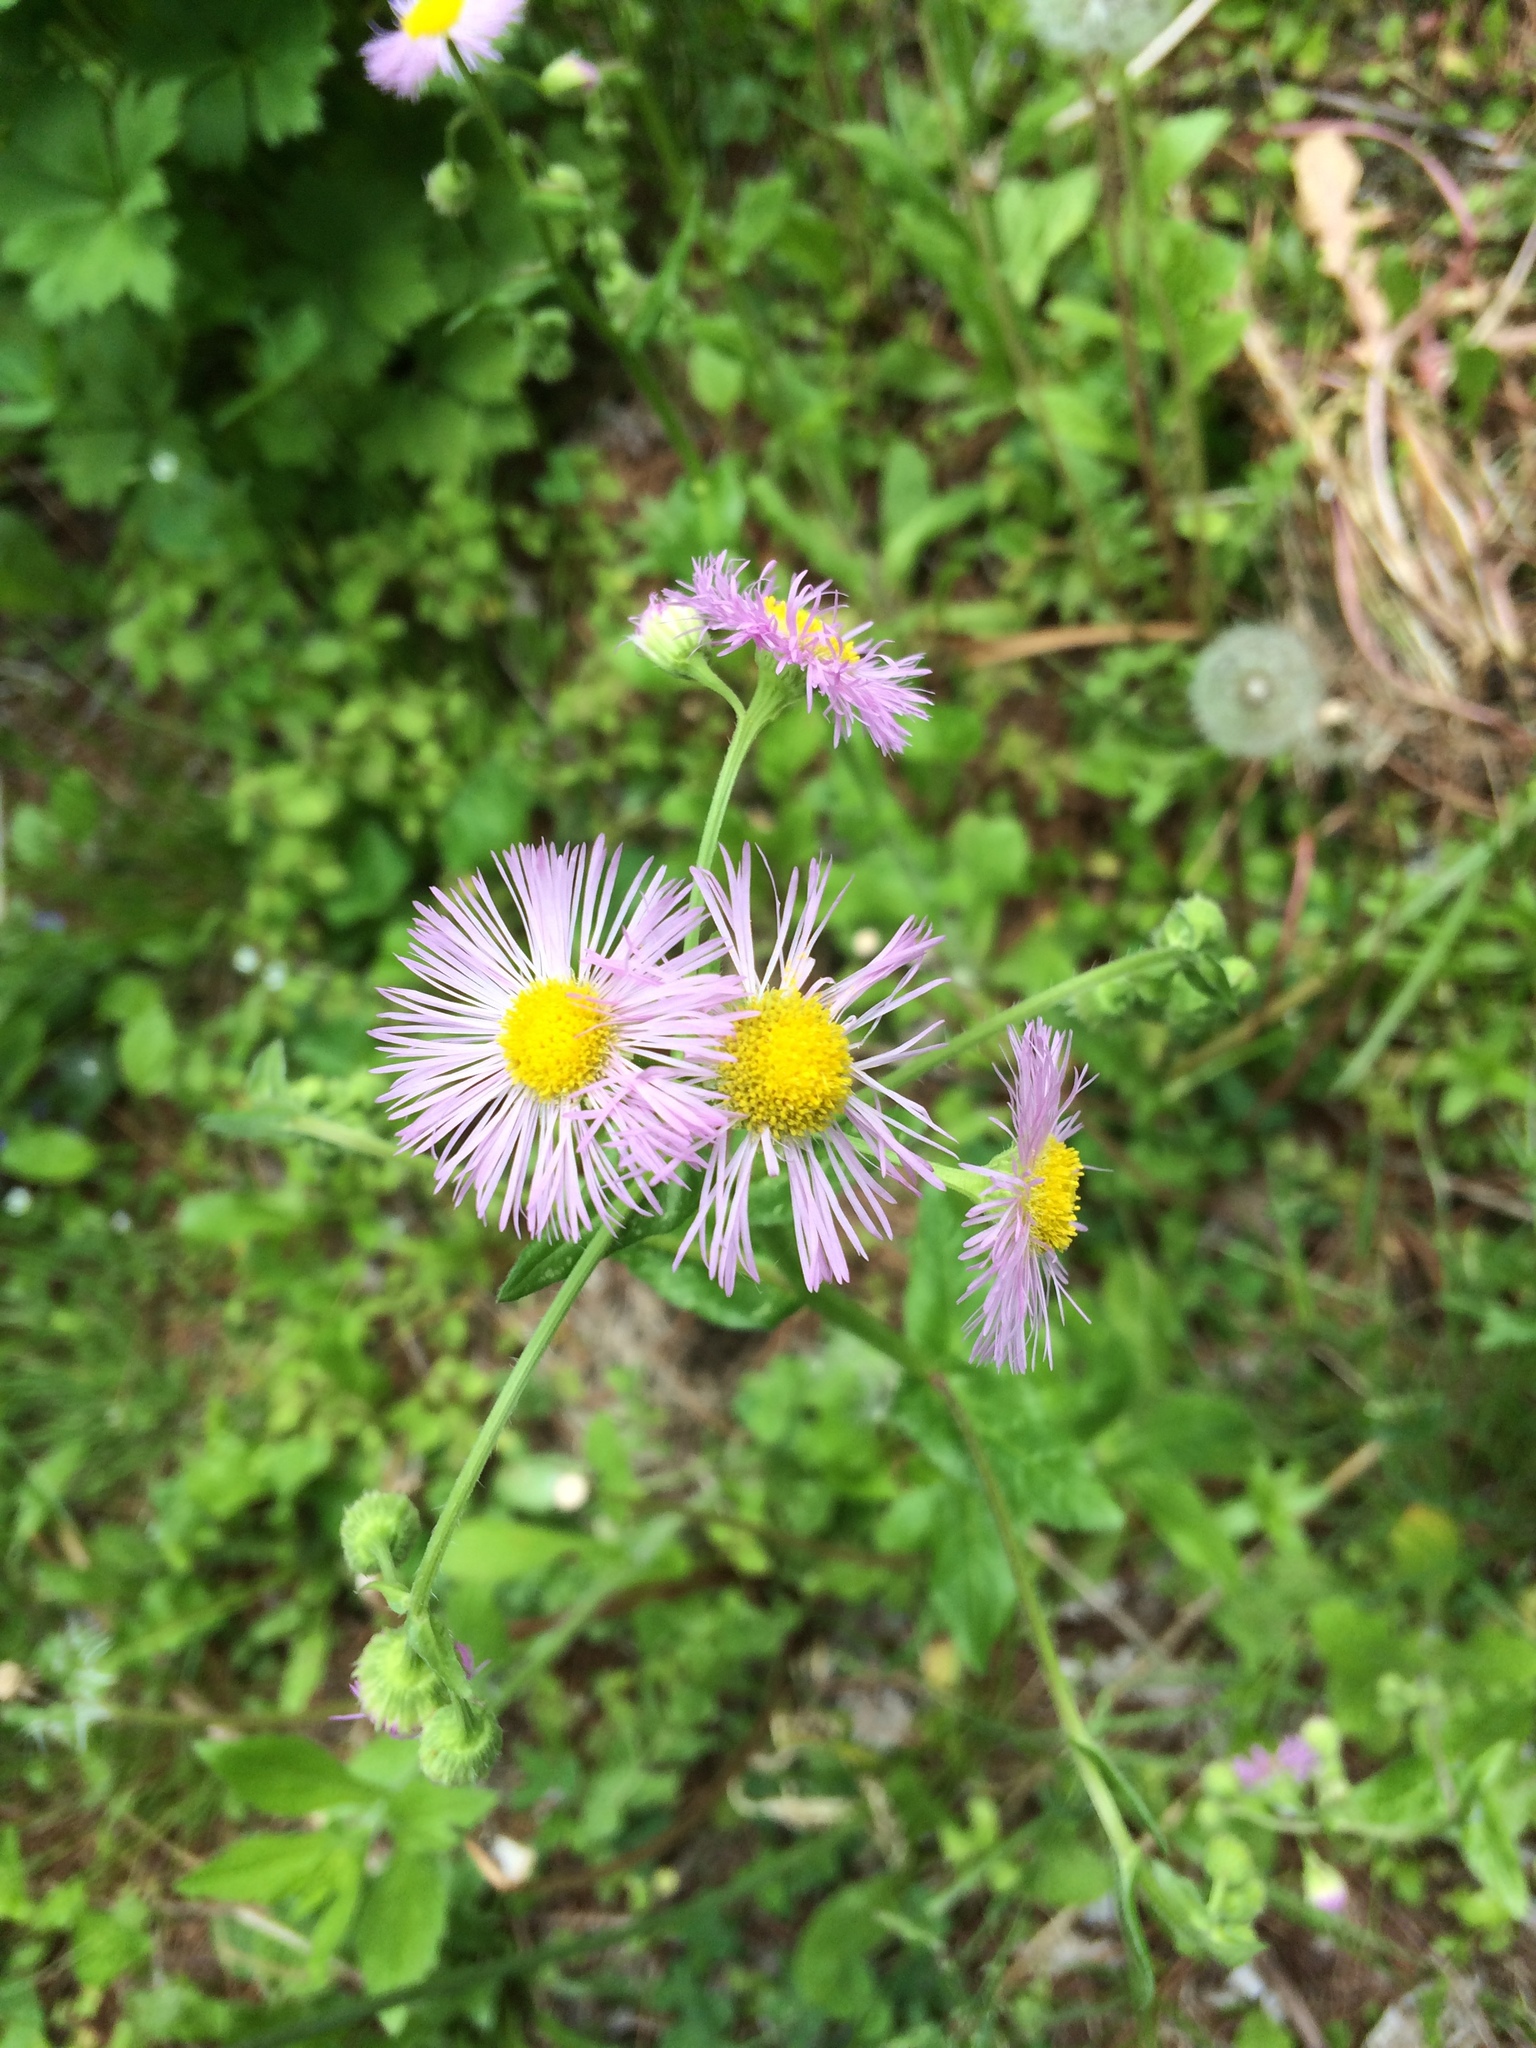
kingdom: Plantae
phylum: Tracheophyta
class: Magnoliopsida
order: Asterales
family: Asteraceae
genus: Erigeron
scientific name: Erigeron philadelphicus
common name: Robin's-plantain
